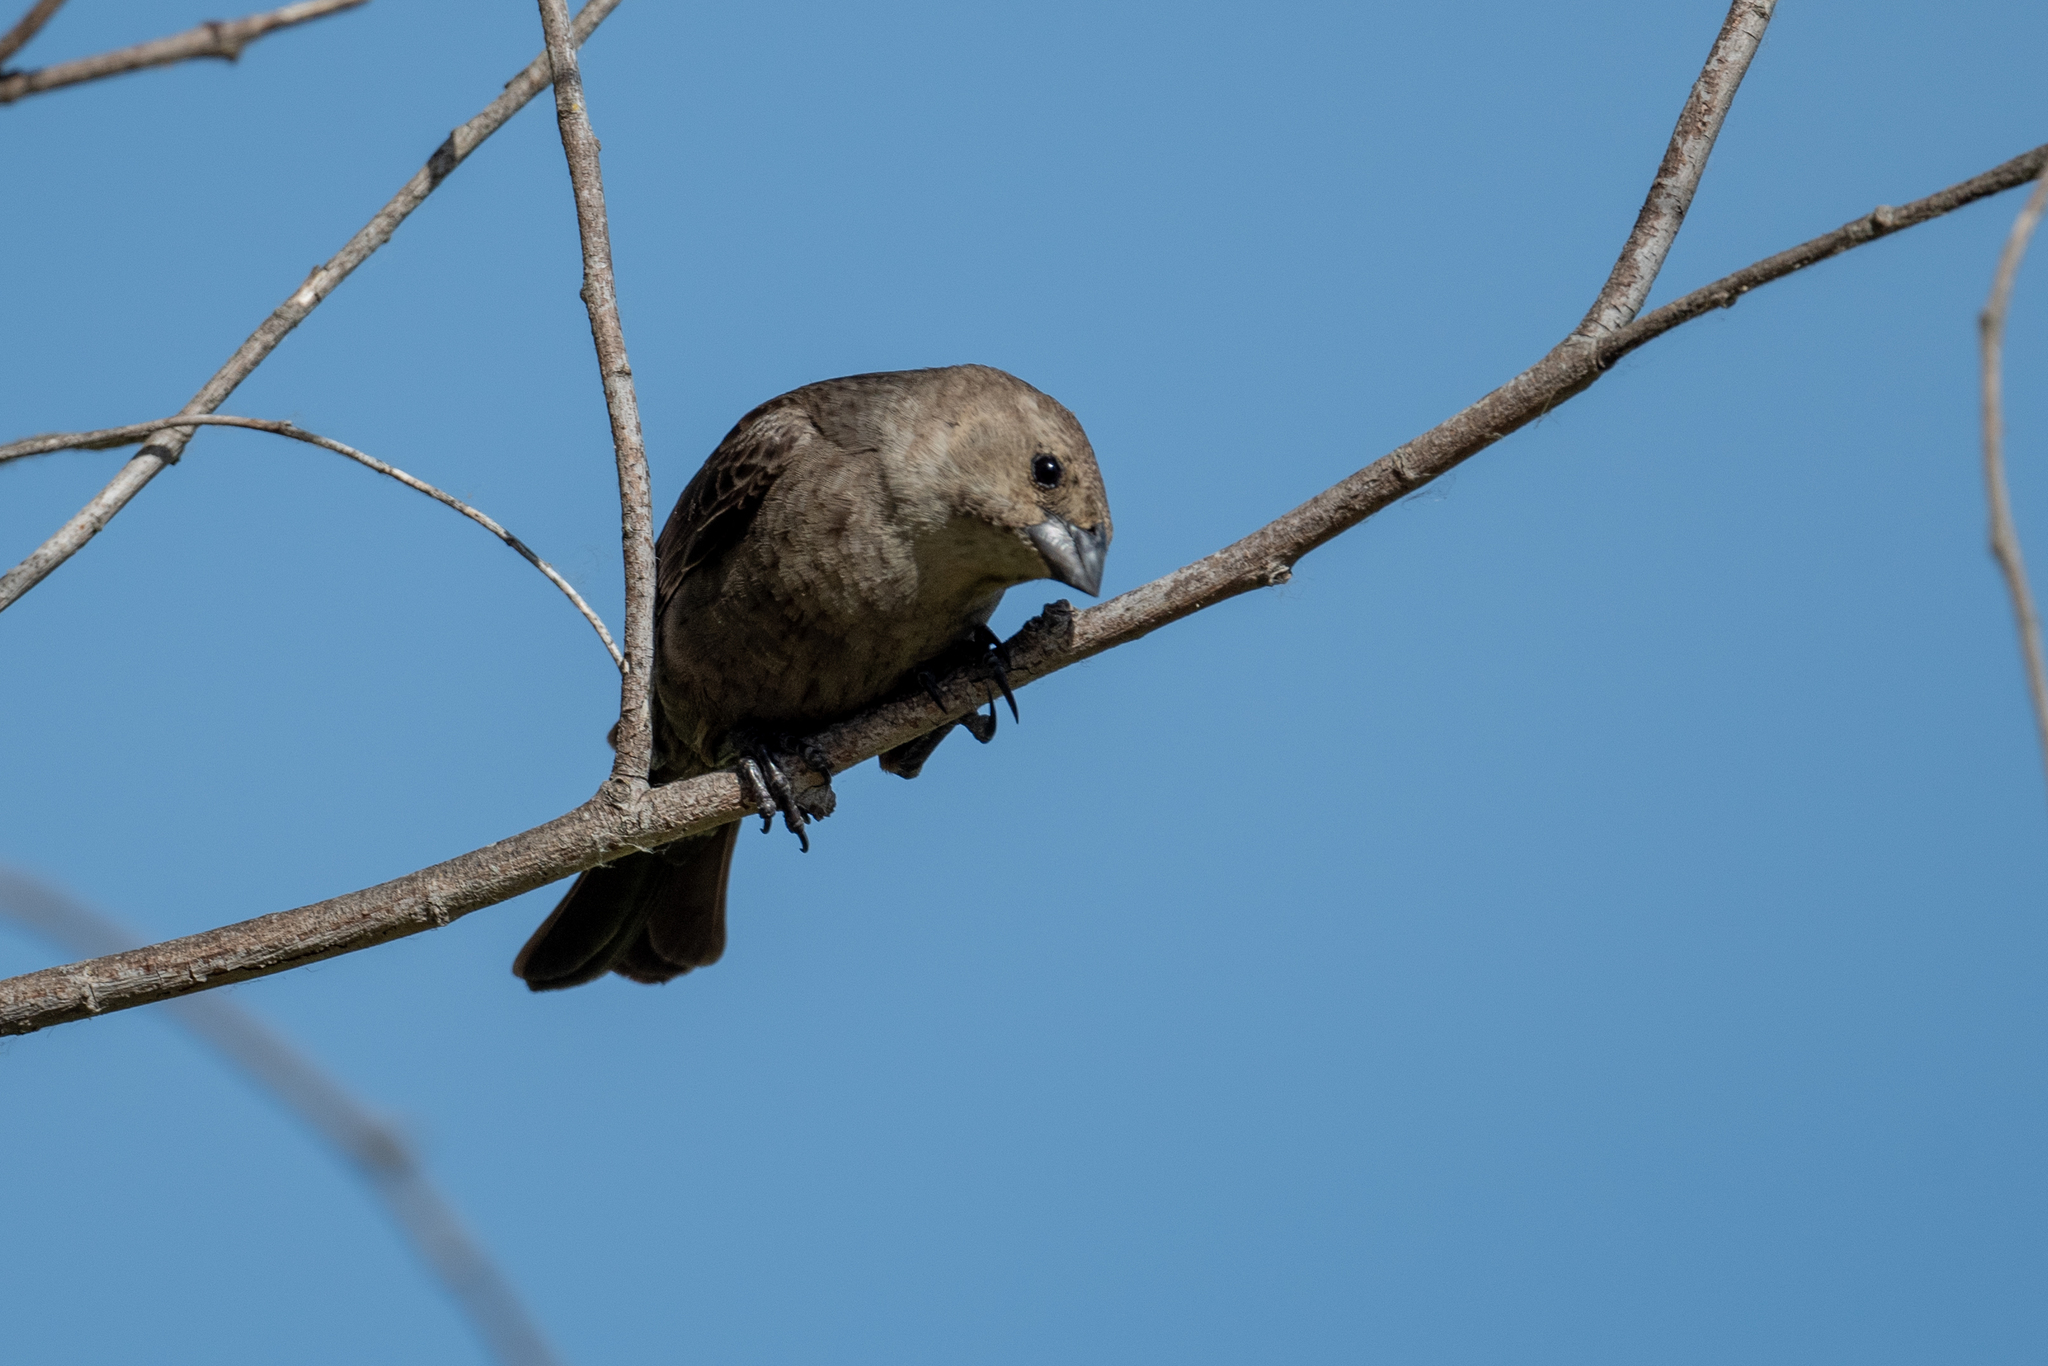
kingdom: Animalia
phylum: Chordata
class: Aves
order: Passeriformes
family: Icteridae
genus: Molothrus
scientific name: Molothrus ater
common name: Brown-headed cowbird
